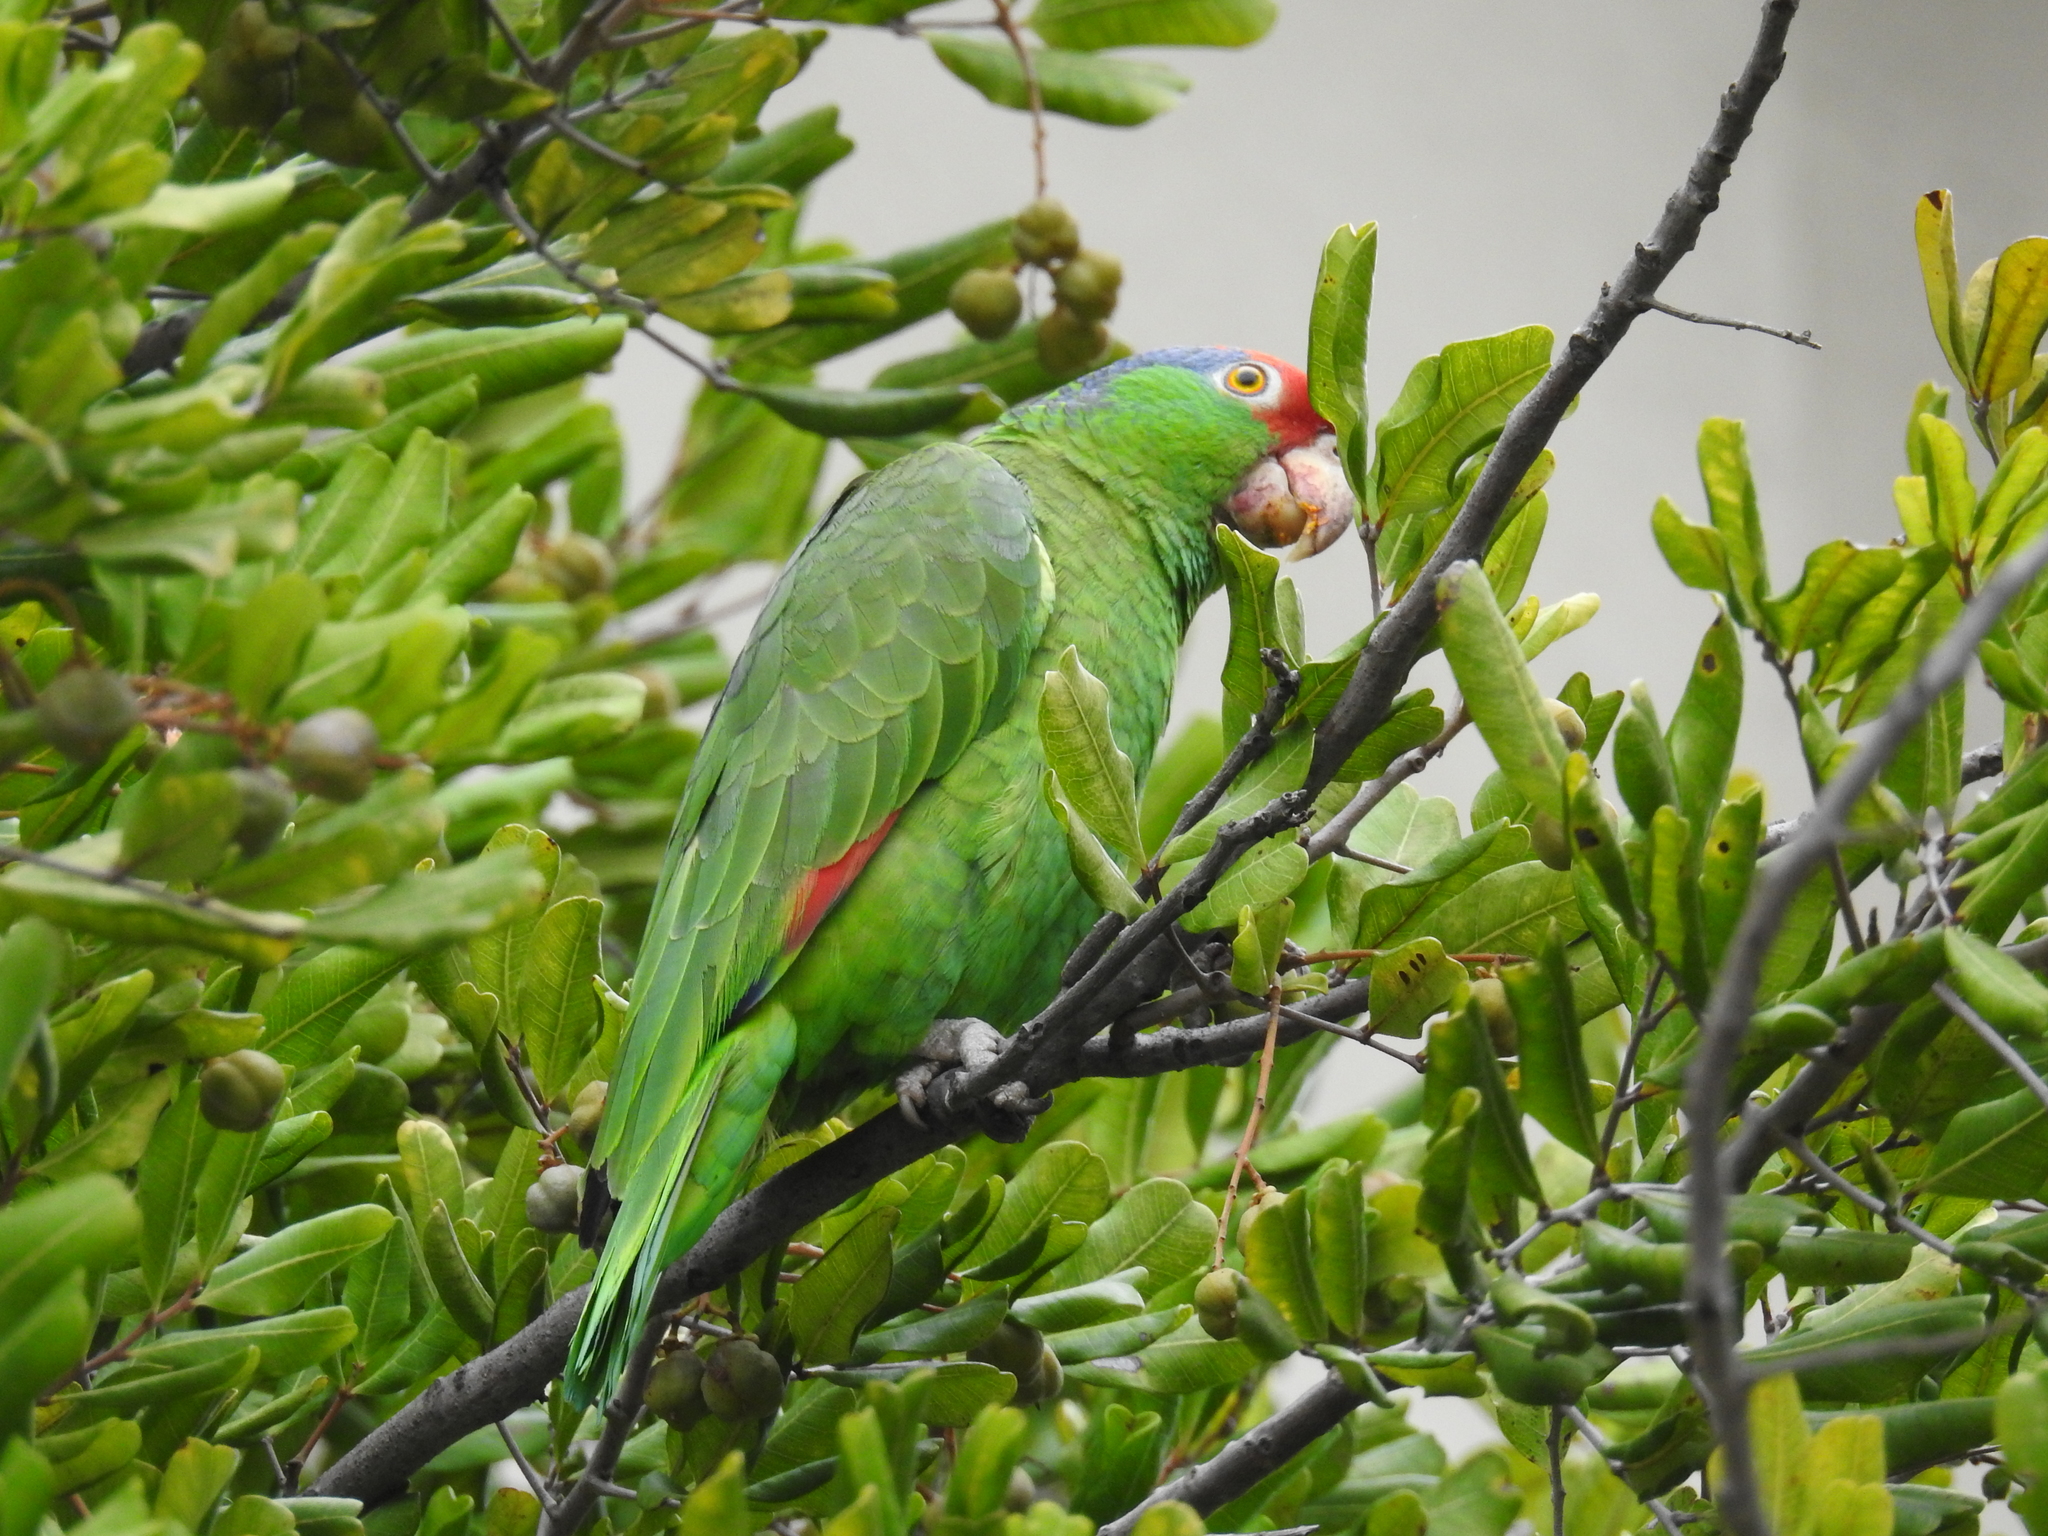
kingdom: Animalia
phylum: Chordata
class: Aves
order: Psittaciformes
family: Psittacidae
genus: Amazona
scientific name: Amazona viridigenalis
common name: Red-crowned amazon
